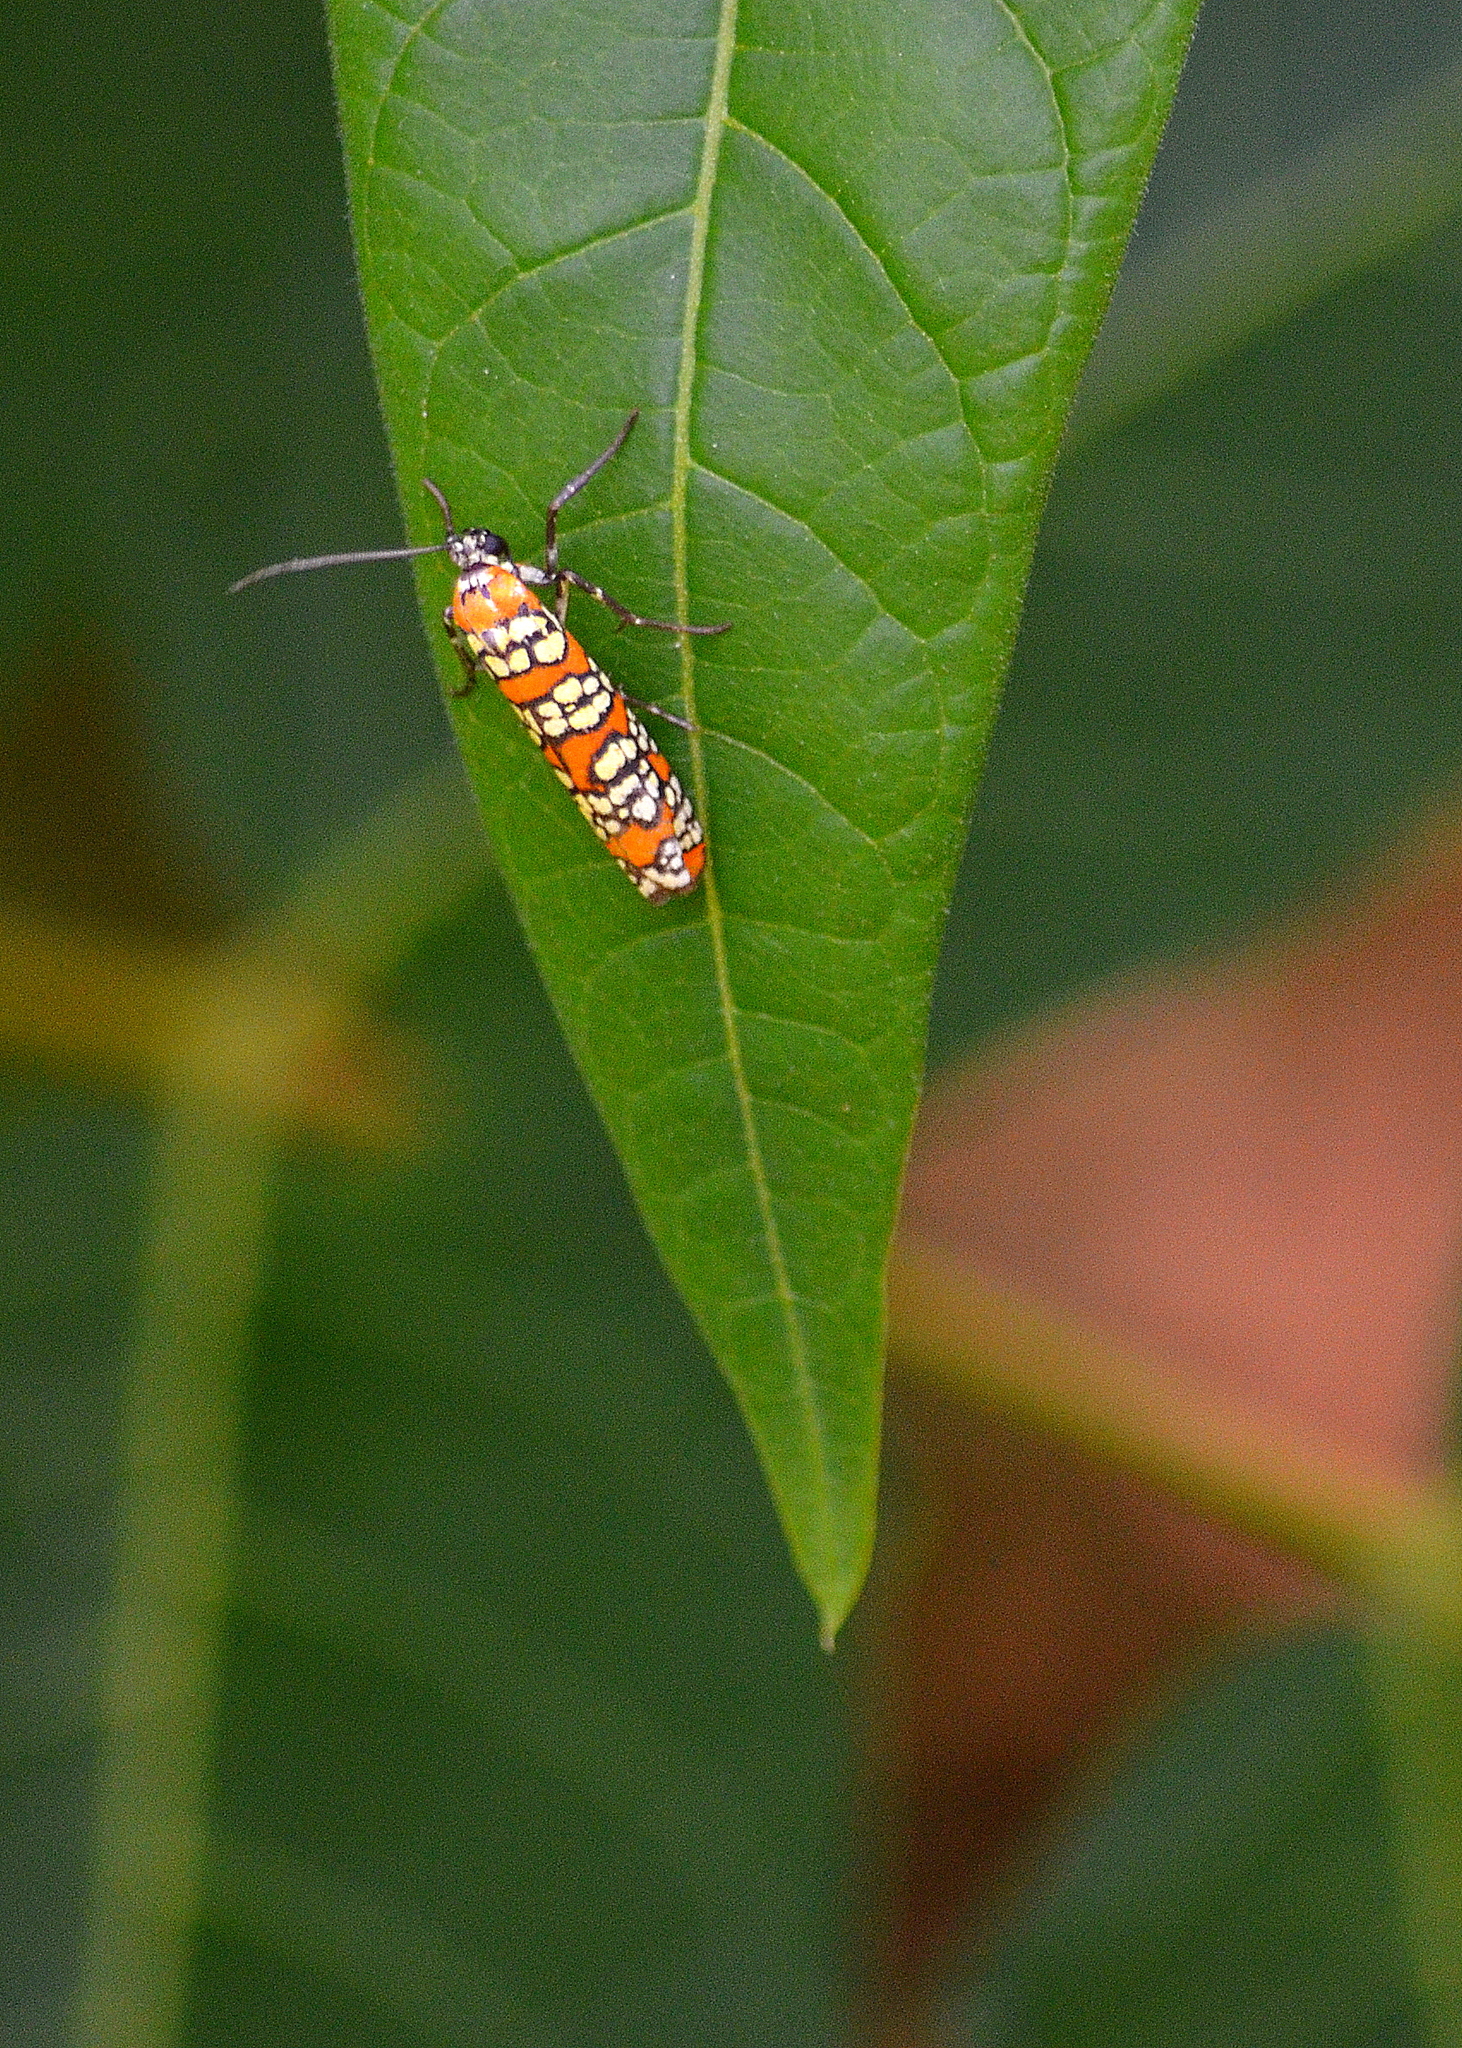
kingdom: Animalia
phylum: Arthropoda
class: Insecta
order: Lepidoptera
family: Attevidae
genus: Atteva
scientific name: Atteva punctella
